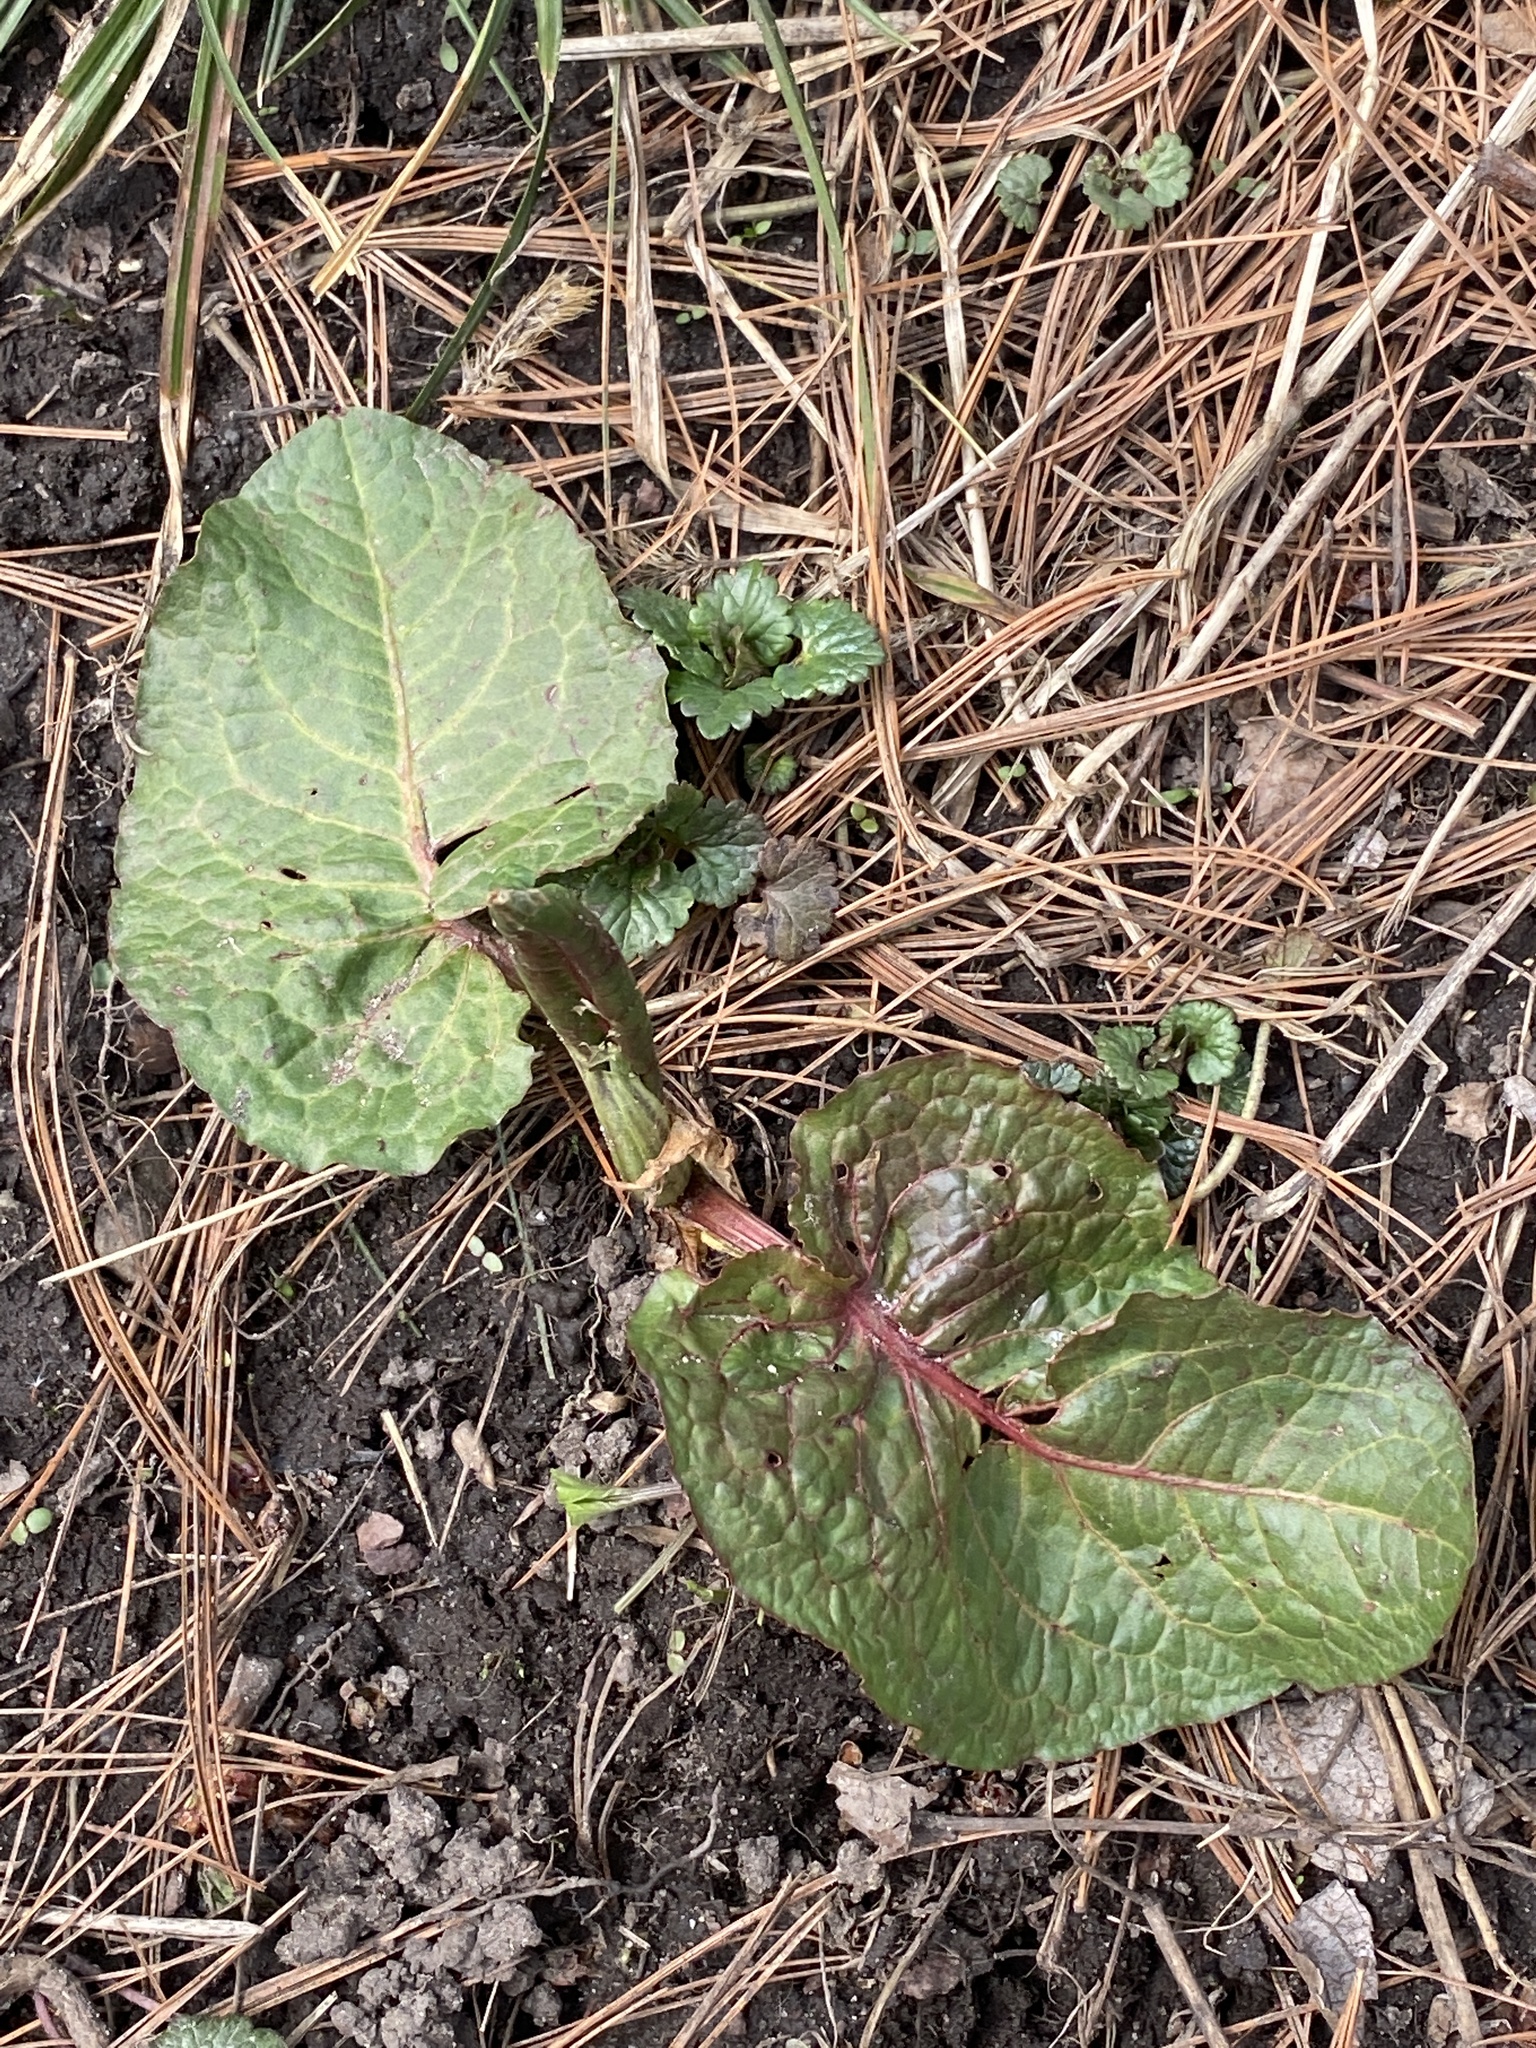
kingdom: Plantae
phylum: Tracheophyta
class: Magnoliopsida
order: Caryophyllales
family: Polygonaceae
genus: Rumex
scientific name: Rumex obtusifolius
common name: Bitter dock
